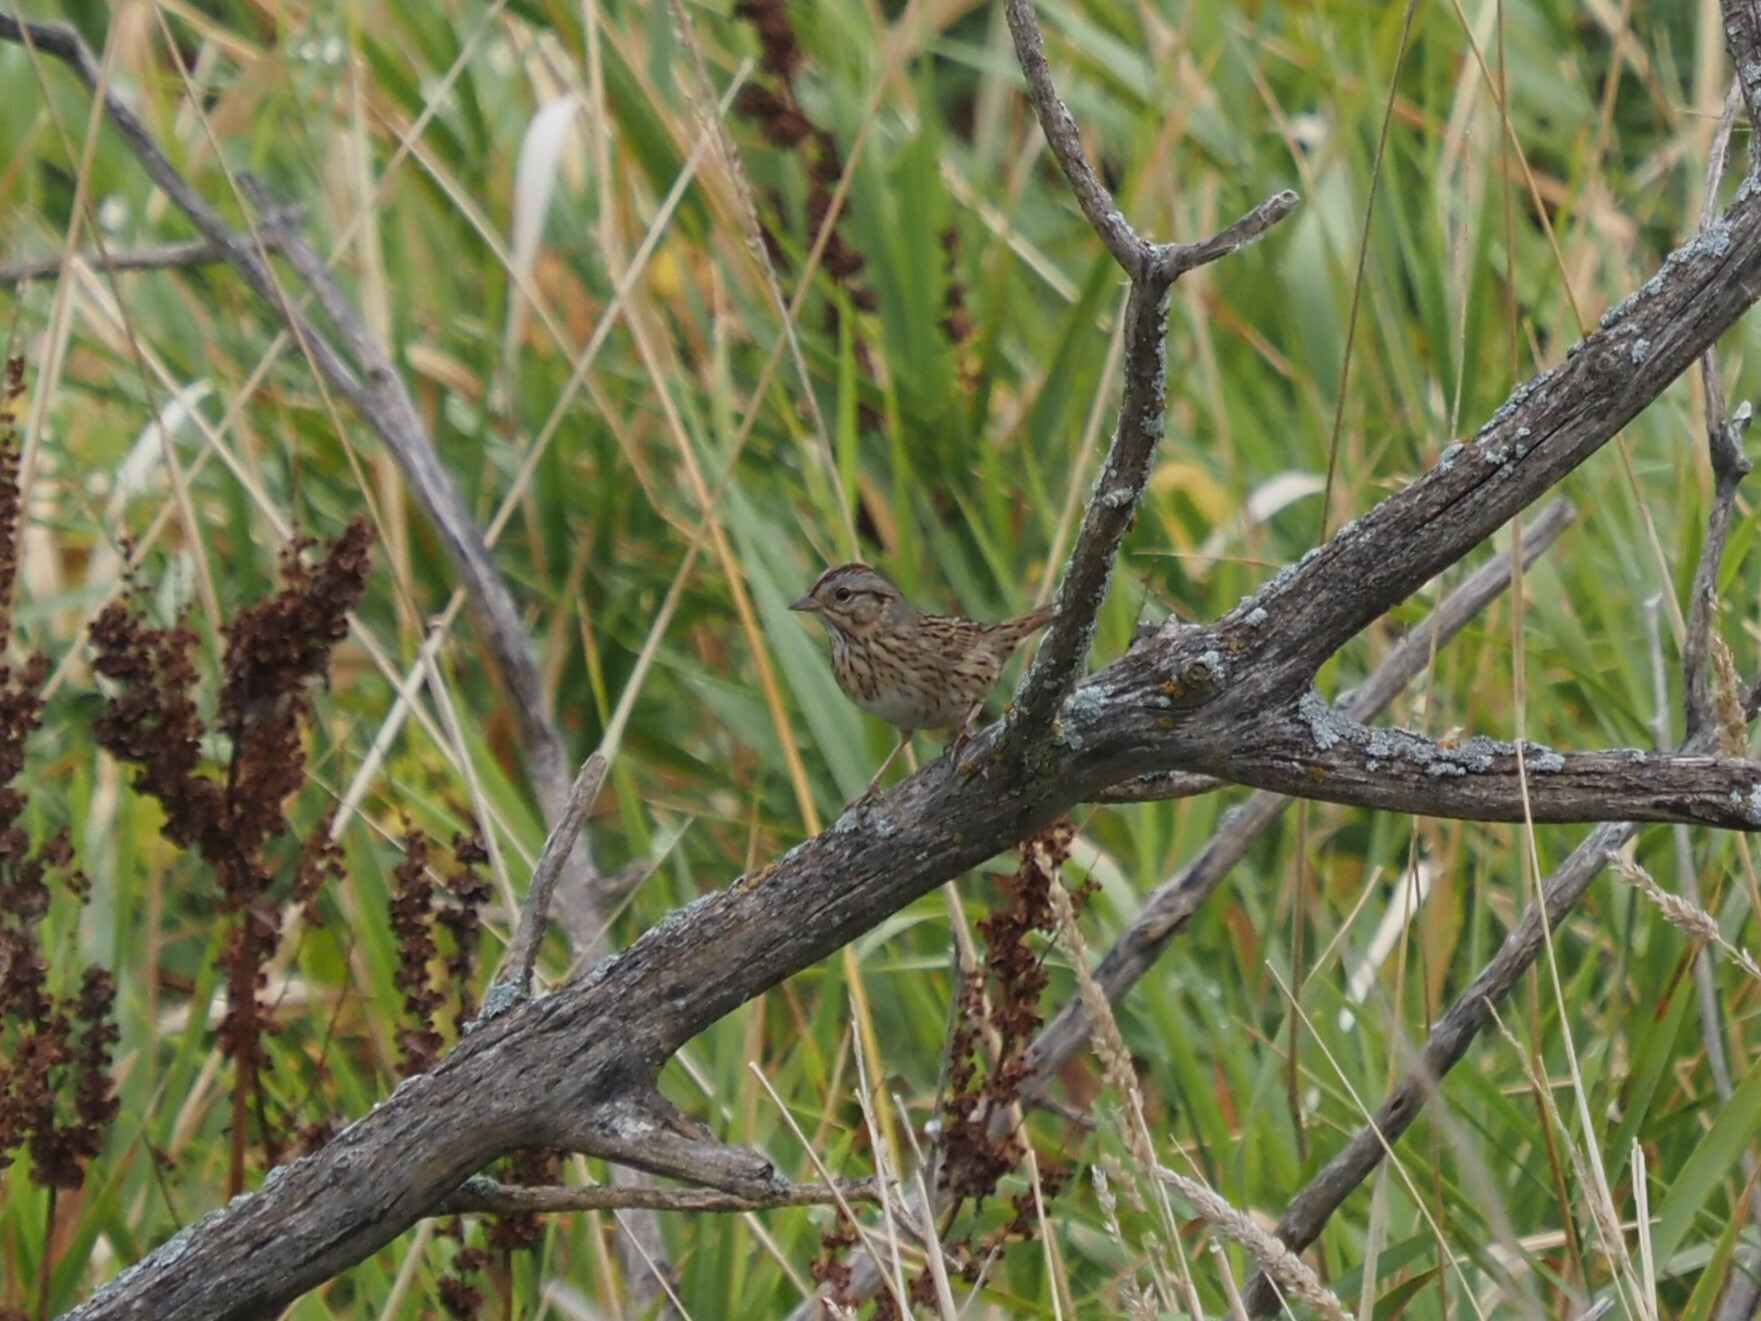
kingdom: Animalia
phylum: Chordata
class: Aves
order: Passeriformes
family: Passerellidae
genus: Melospiza
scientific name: Melospiza lincolnii
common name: Lincoln's sparrow
